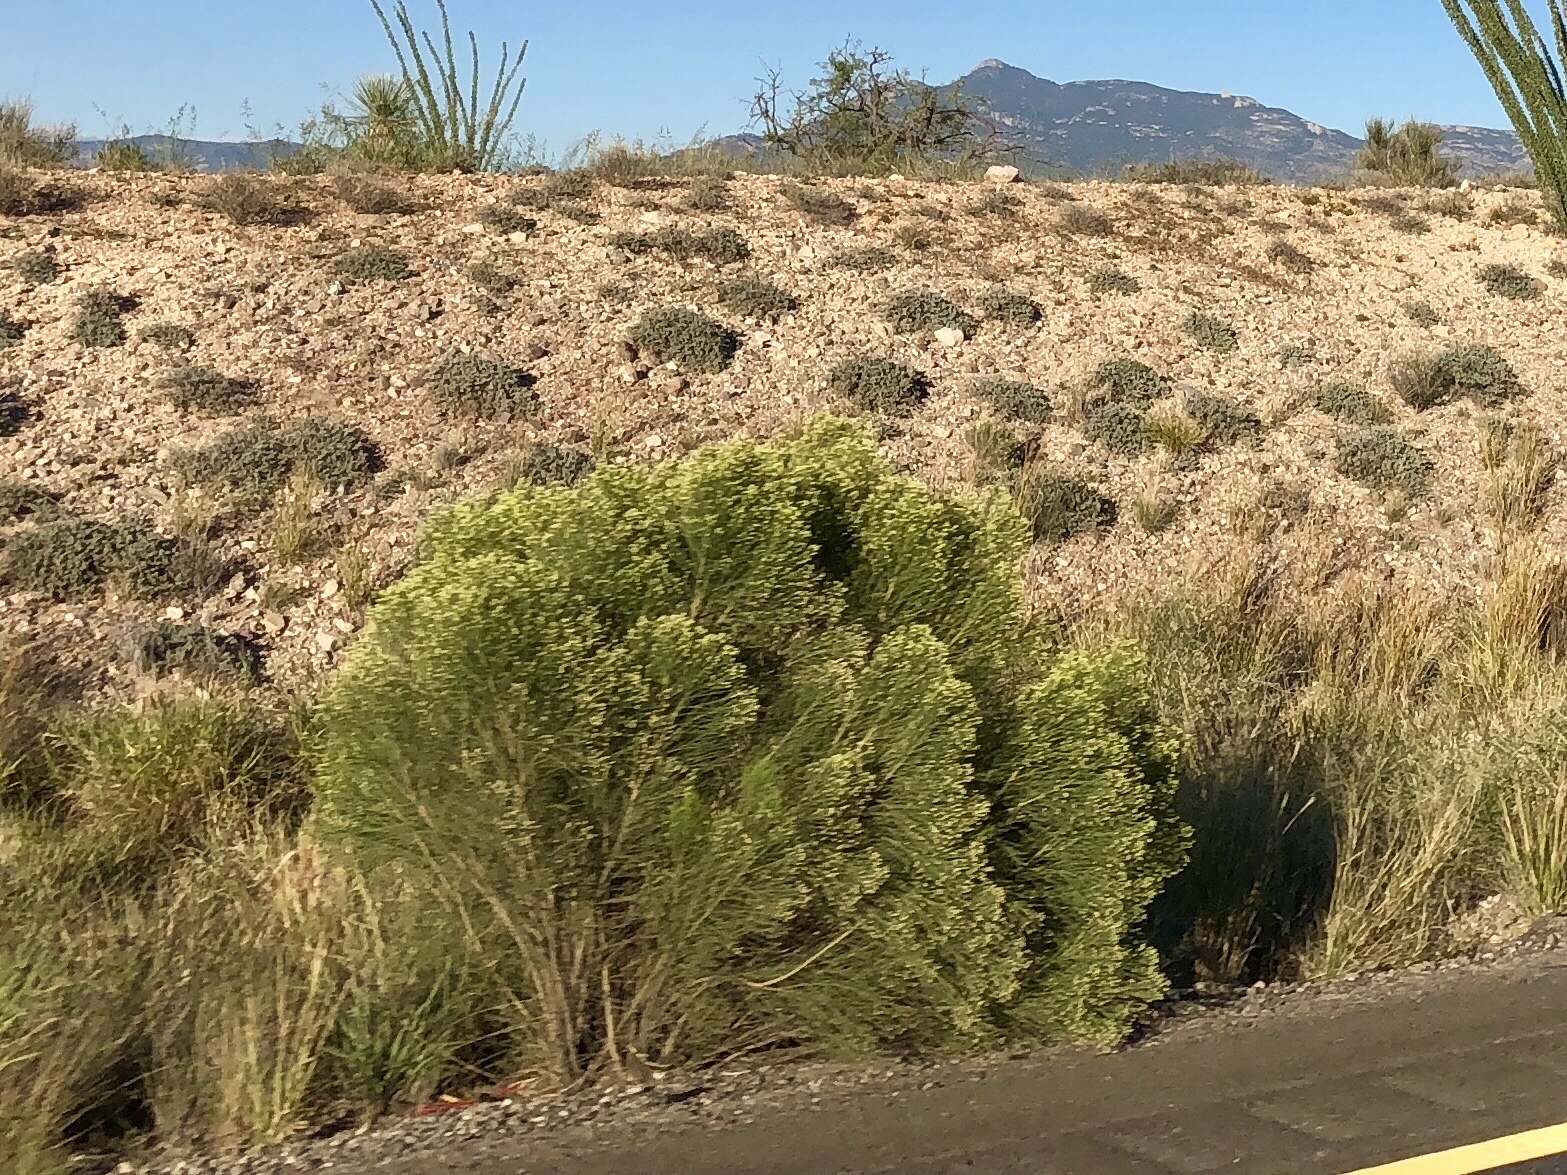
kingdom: Plantae
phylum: Tracheophyta
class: Magnoliopsida
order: Asterales
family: Asteraceae
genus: Baccharis
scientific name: Baccharis sarothroides
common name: Desert-broom
